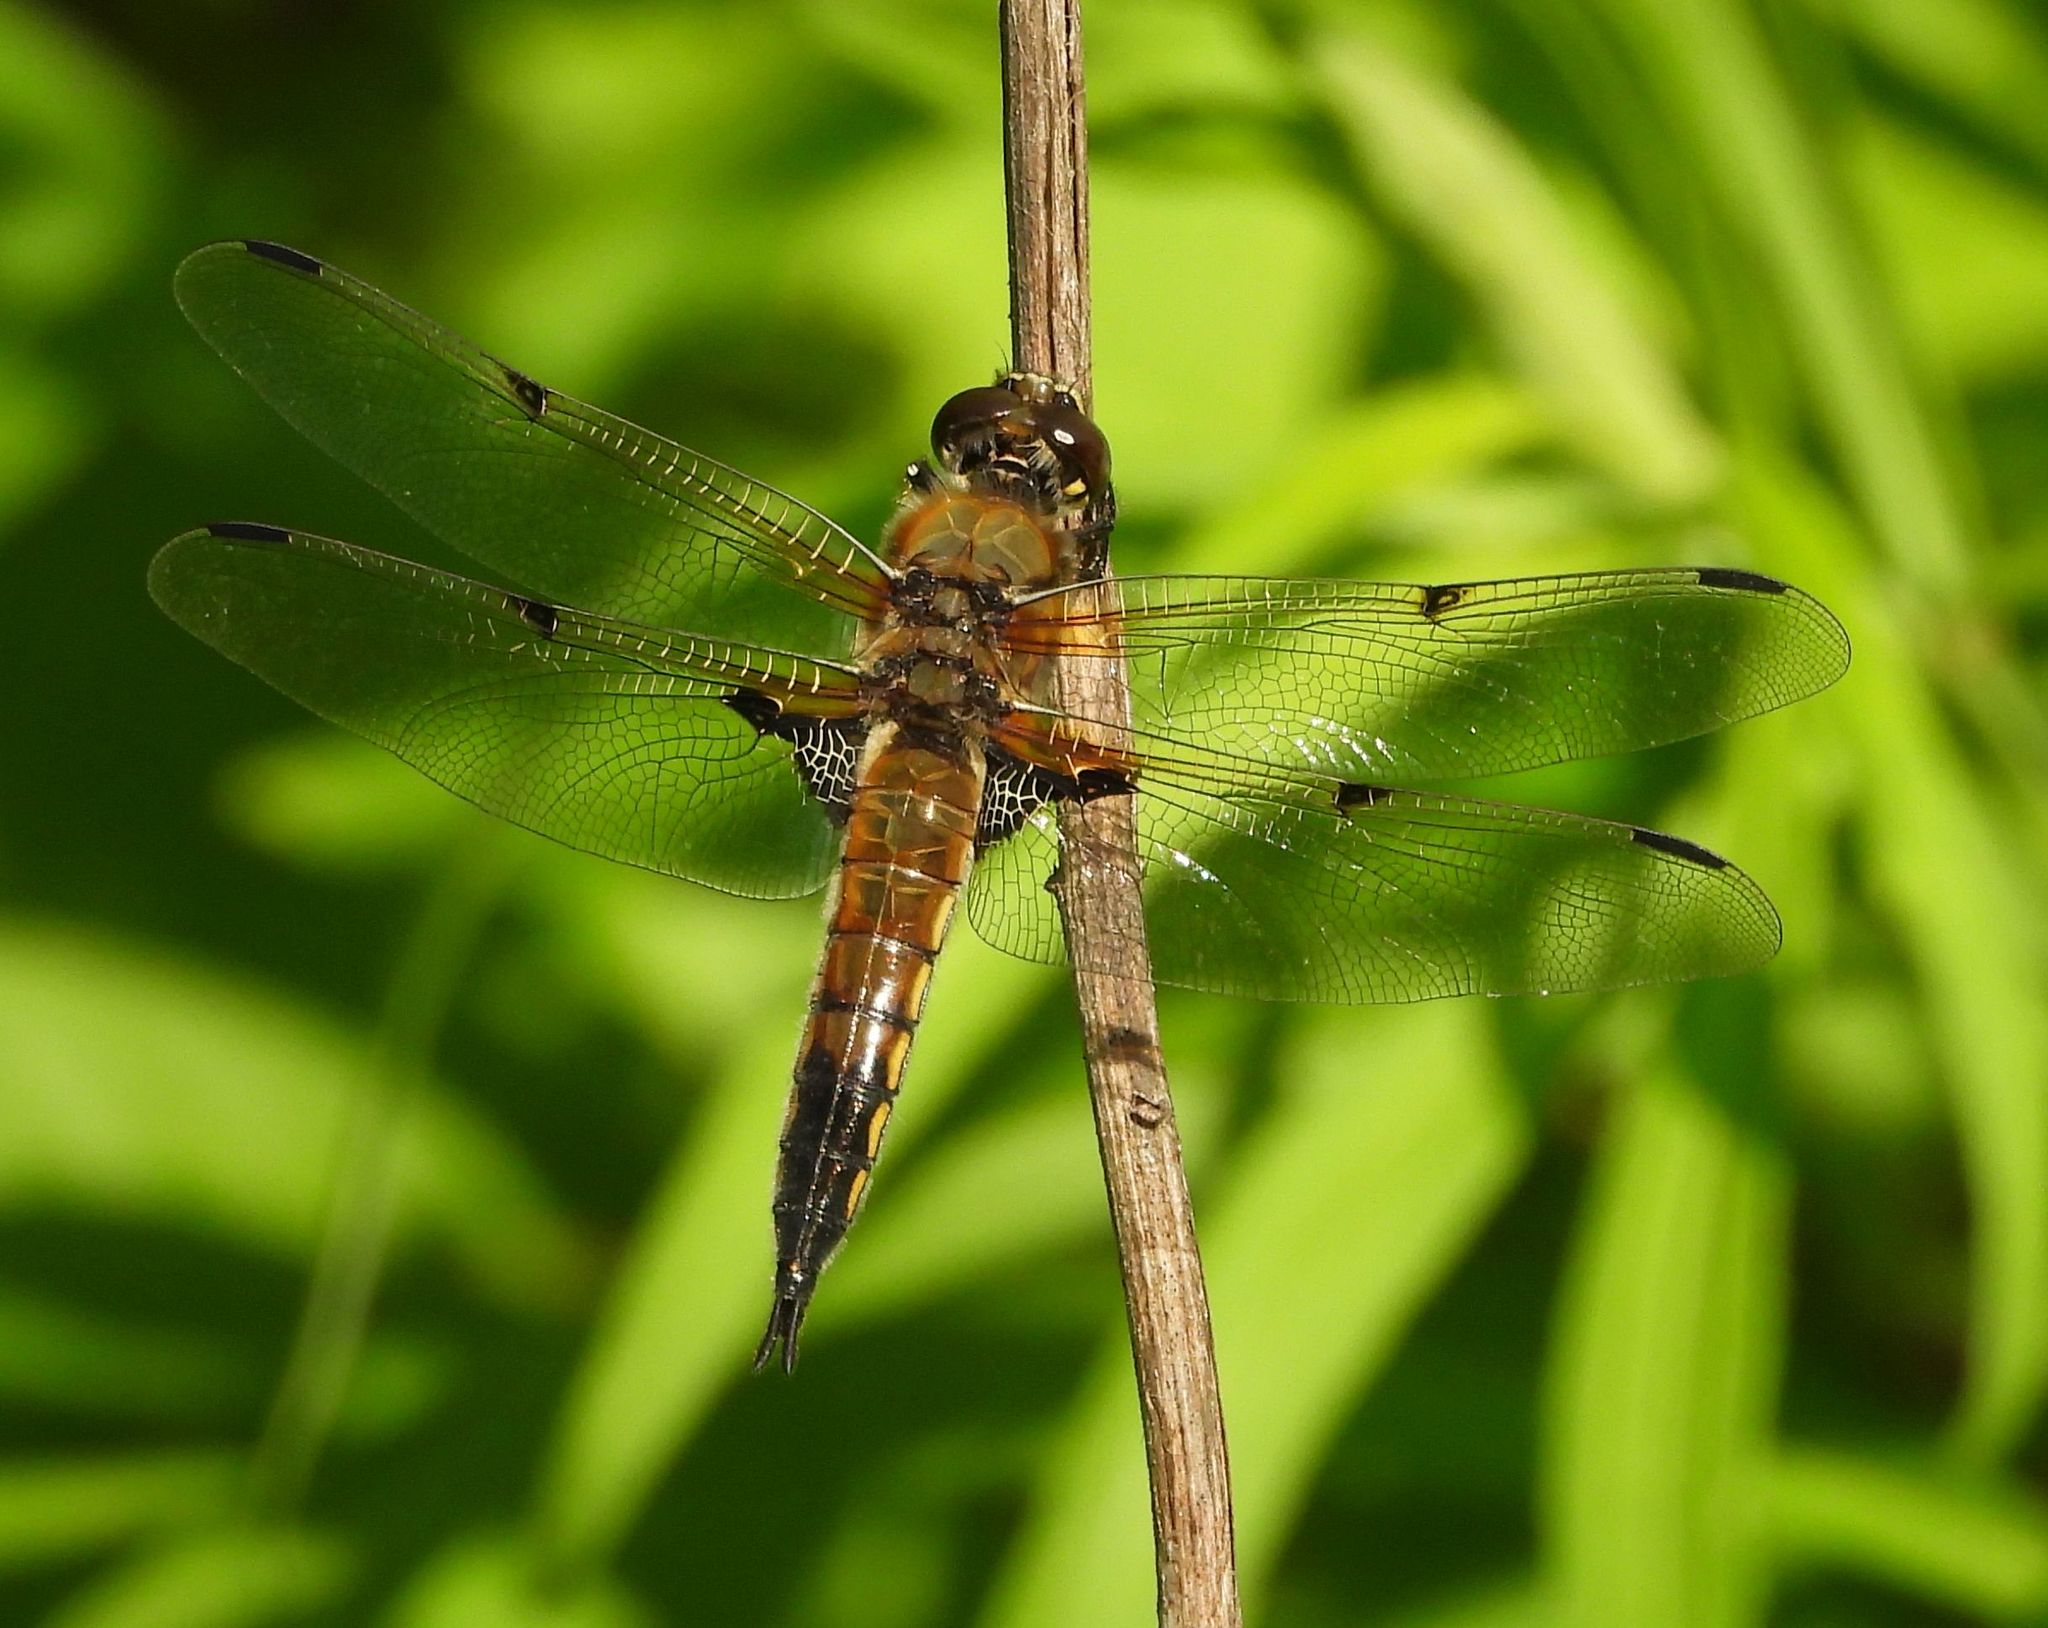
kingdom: Animalia
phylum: Arthropoda
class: Insecta
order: Odonata
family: Libellulidae
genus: Libellula
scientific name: Libellula quadrimaculata
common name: Four-spotted chaser
